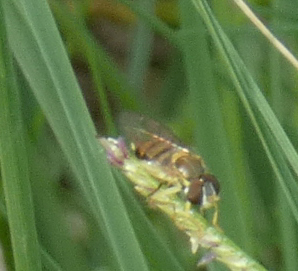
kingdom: Animalia
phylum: Arthropoda
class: Insecta
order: Diptera
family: Syrphidae
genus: Toxomerus
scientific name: Toxomerus marginatus
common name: Syrphid fly
